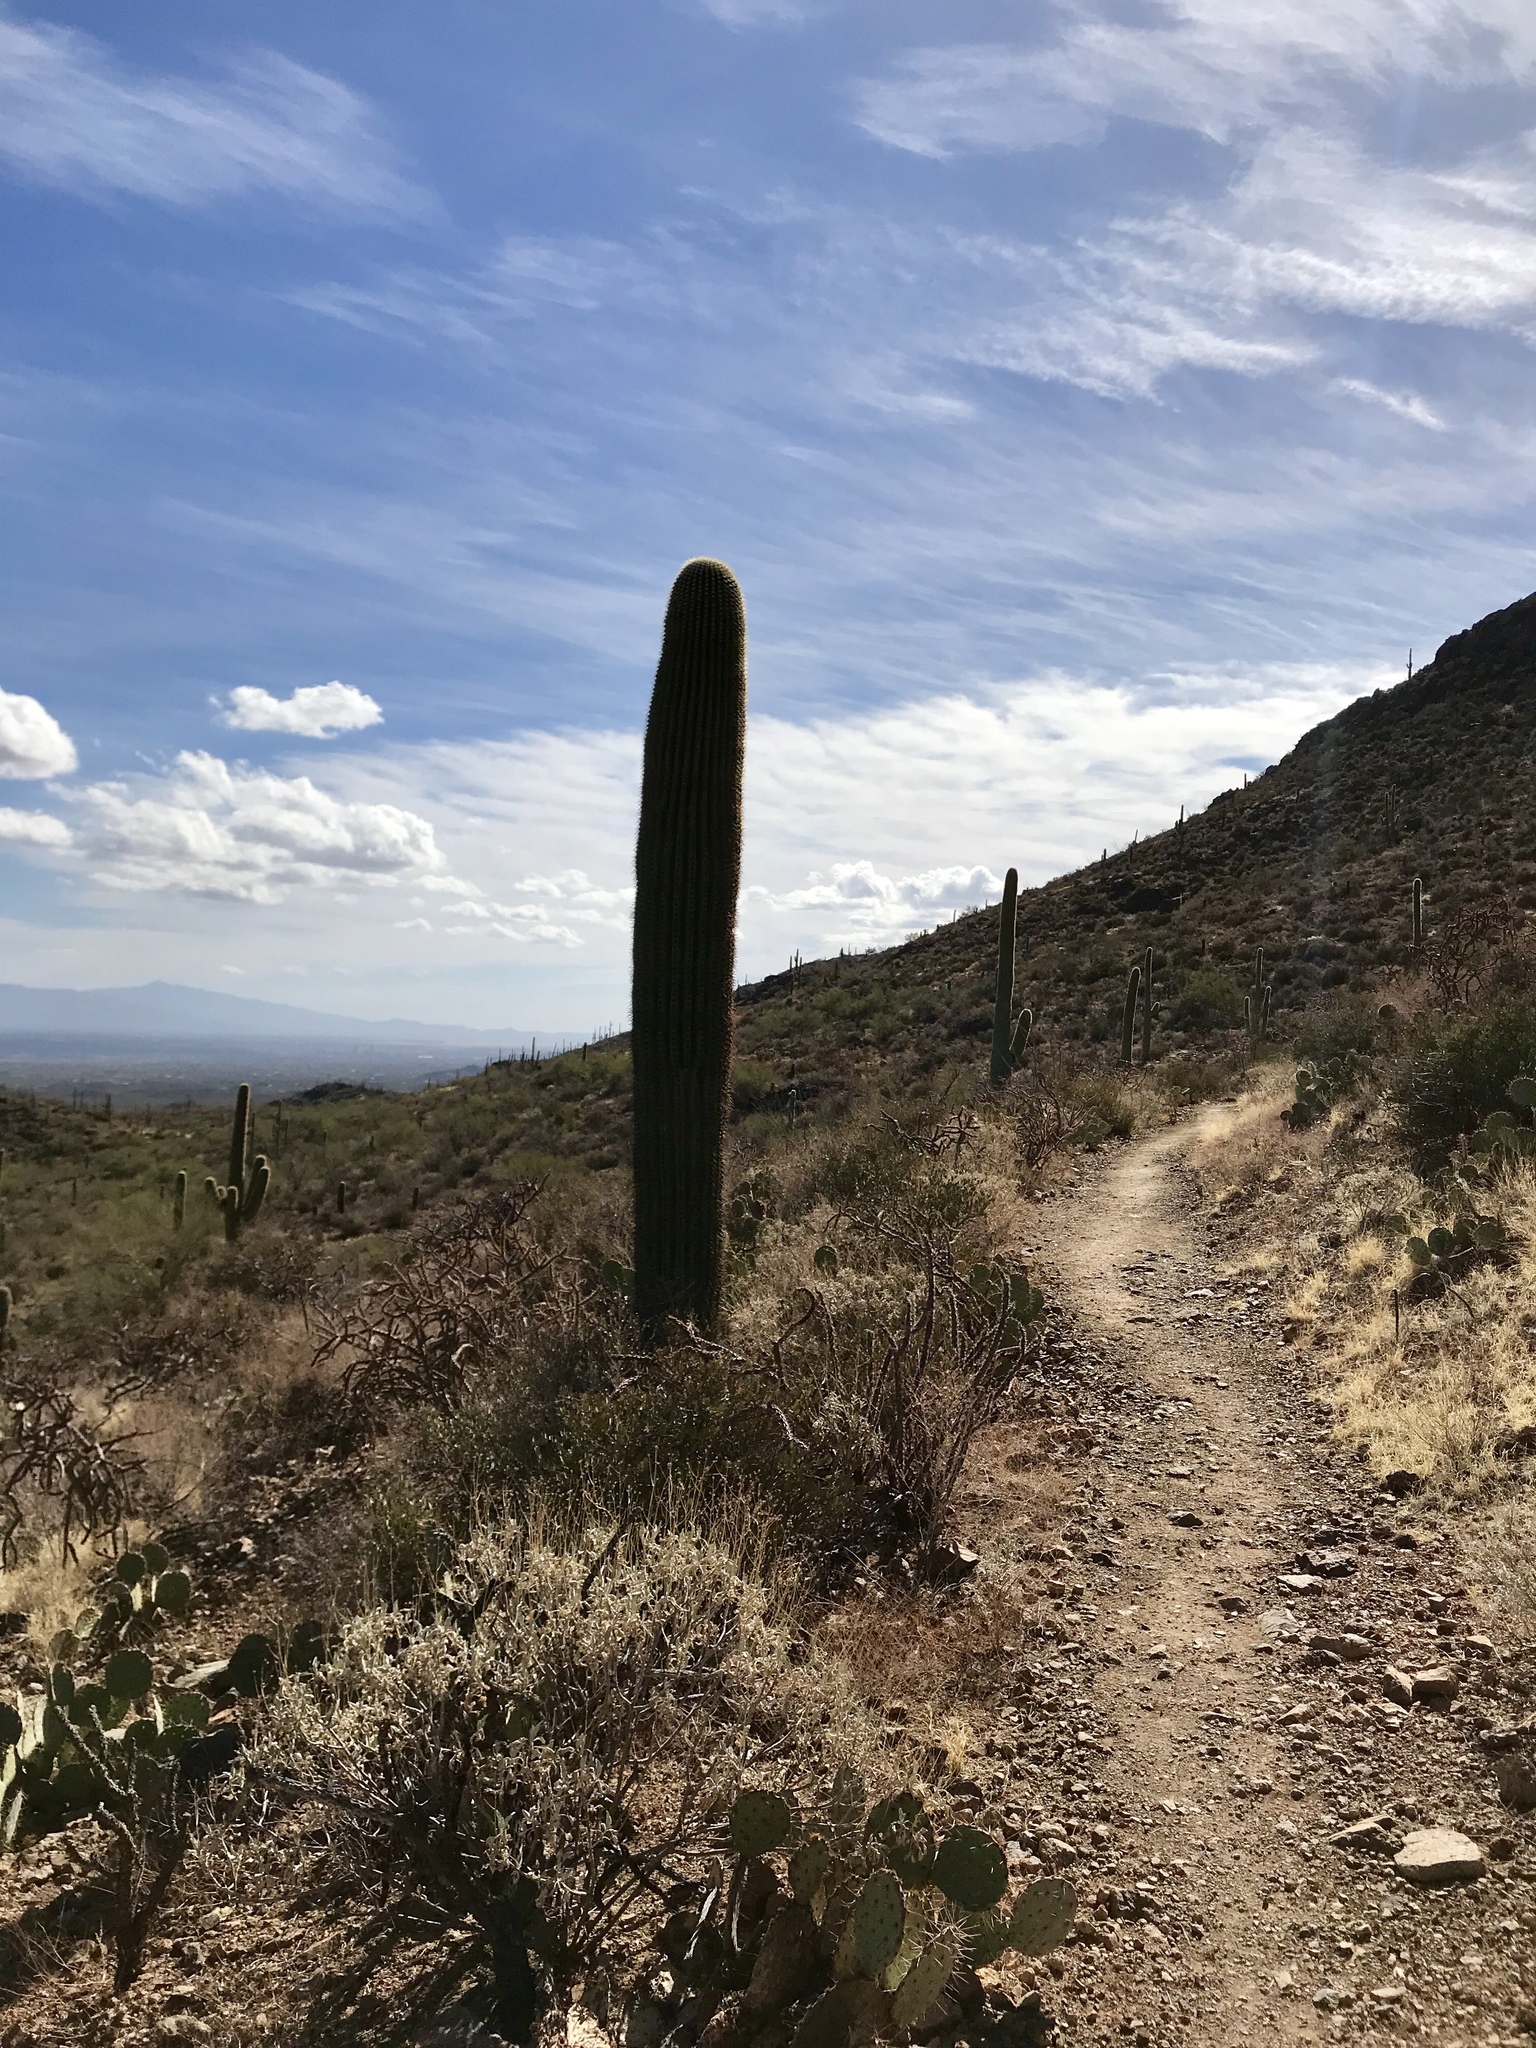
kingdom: Plantae
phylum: Tracheophyta
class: Magnoliopsida
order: Caryophyllales
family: Cactaceae
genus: Carnegiea
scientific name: Carnegiea gigantea
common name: Saguaro
